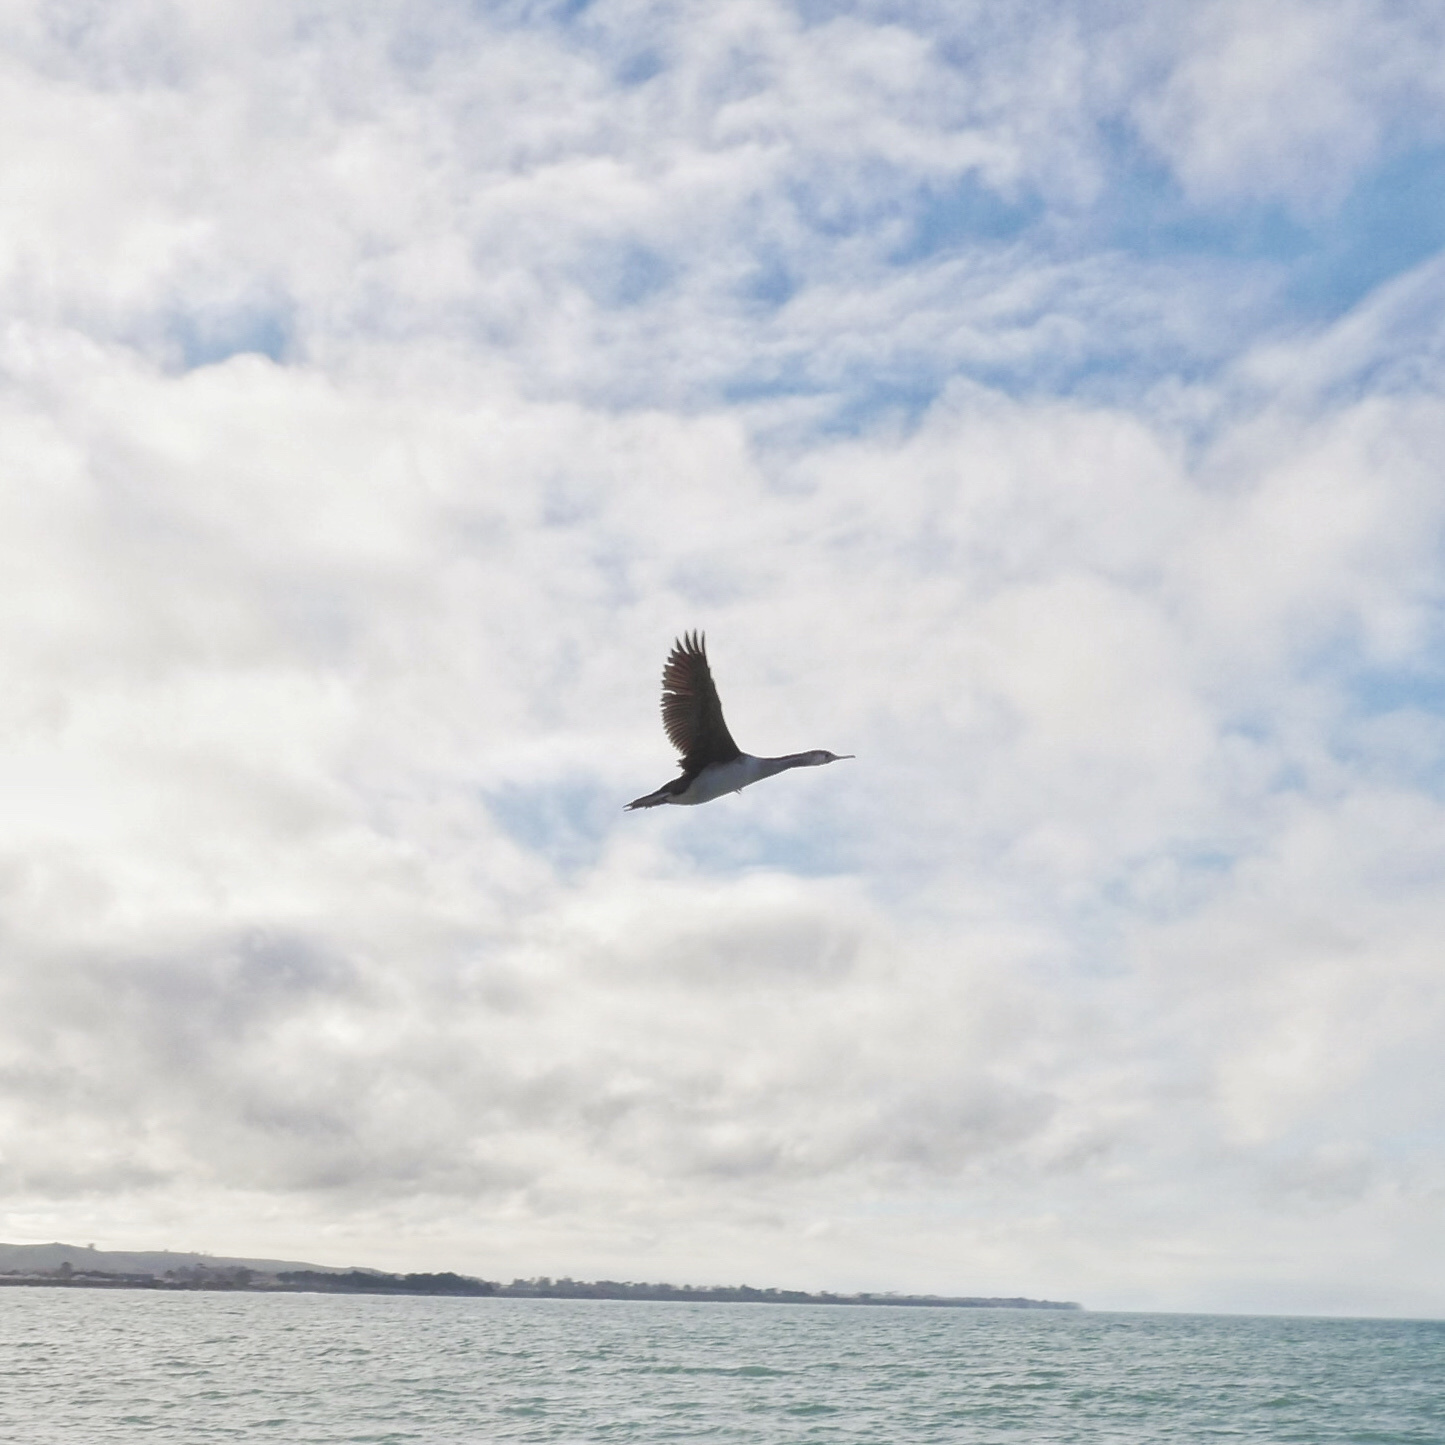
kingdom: Animalia
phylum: Chordata
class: Aves
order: Suliformes
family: Phalacrocoracidae
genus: Phalacrocorax
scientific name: Phalacrocorax punctatus
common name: Spotted shag
